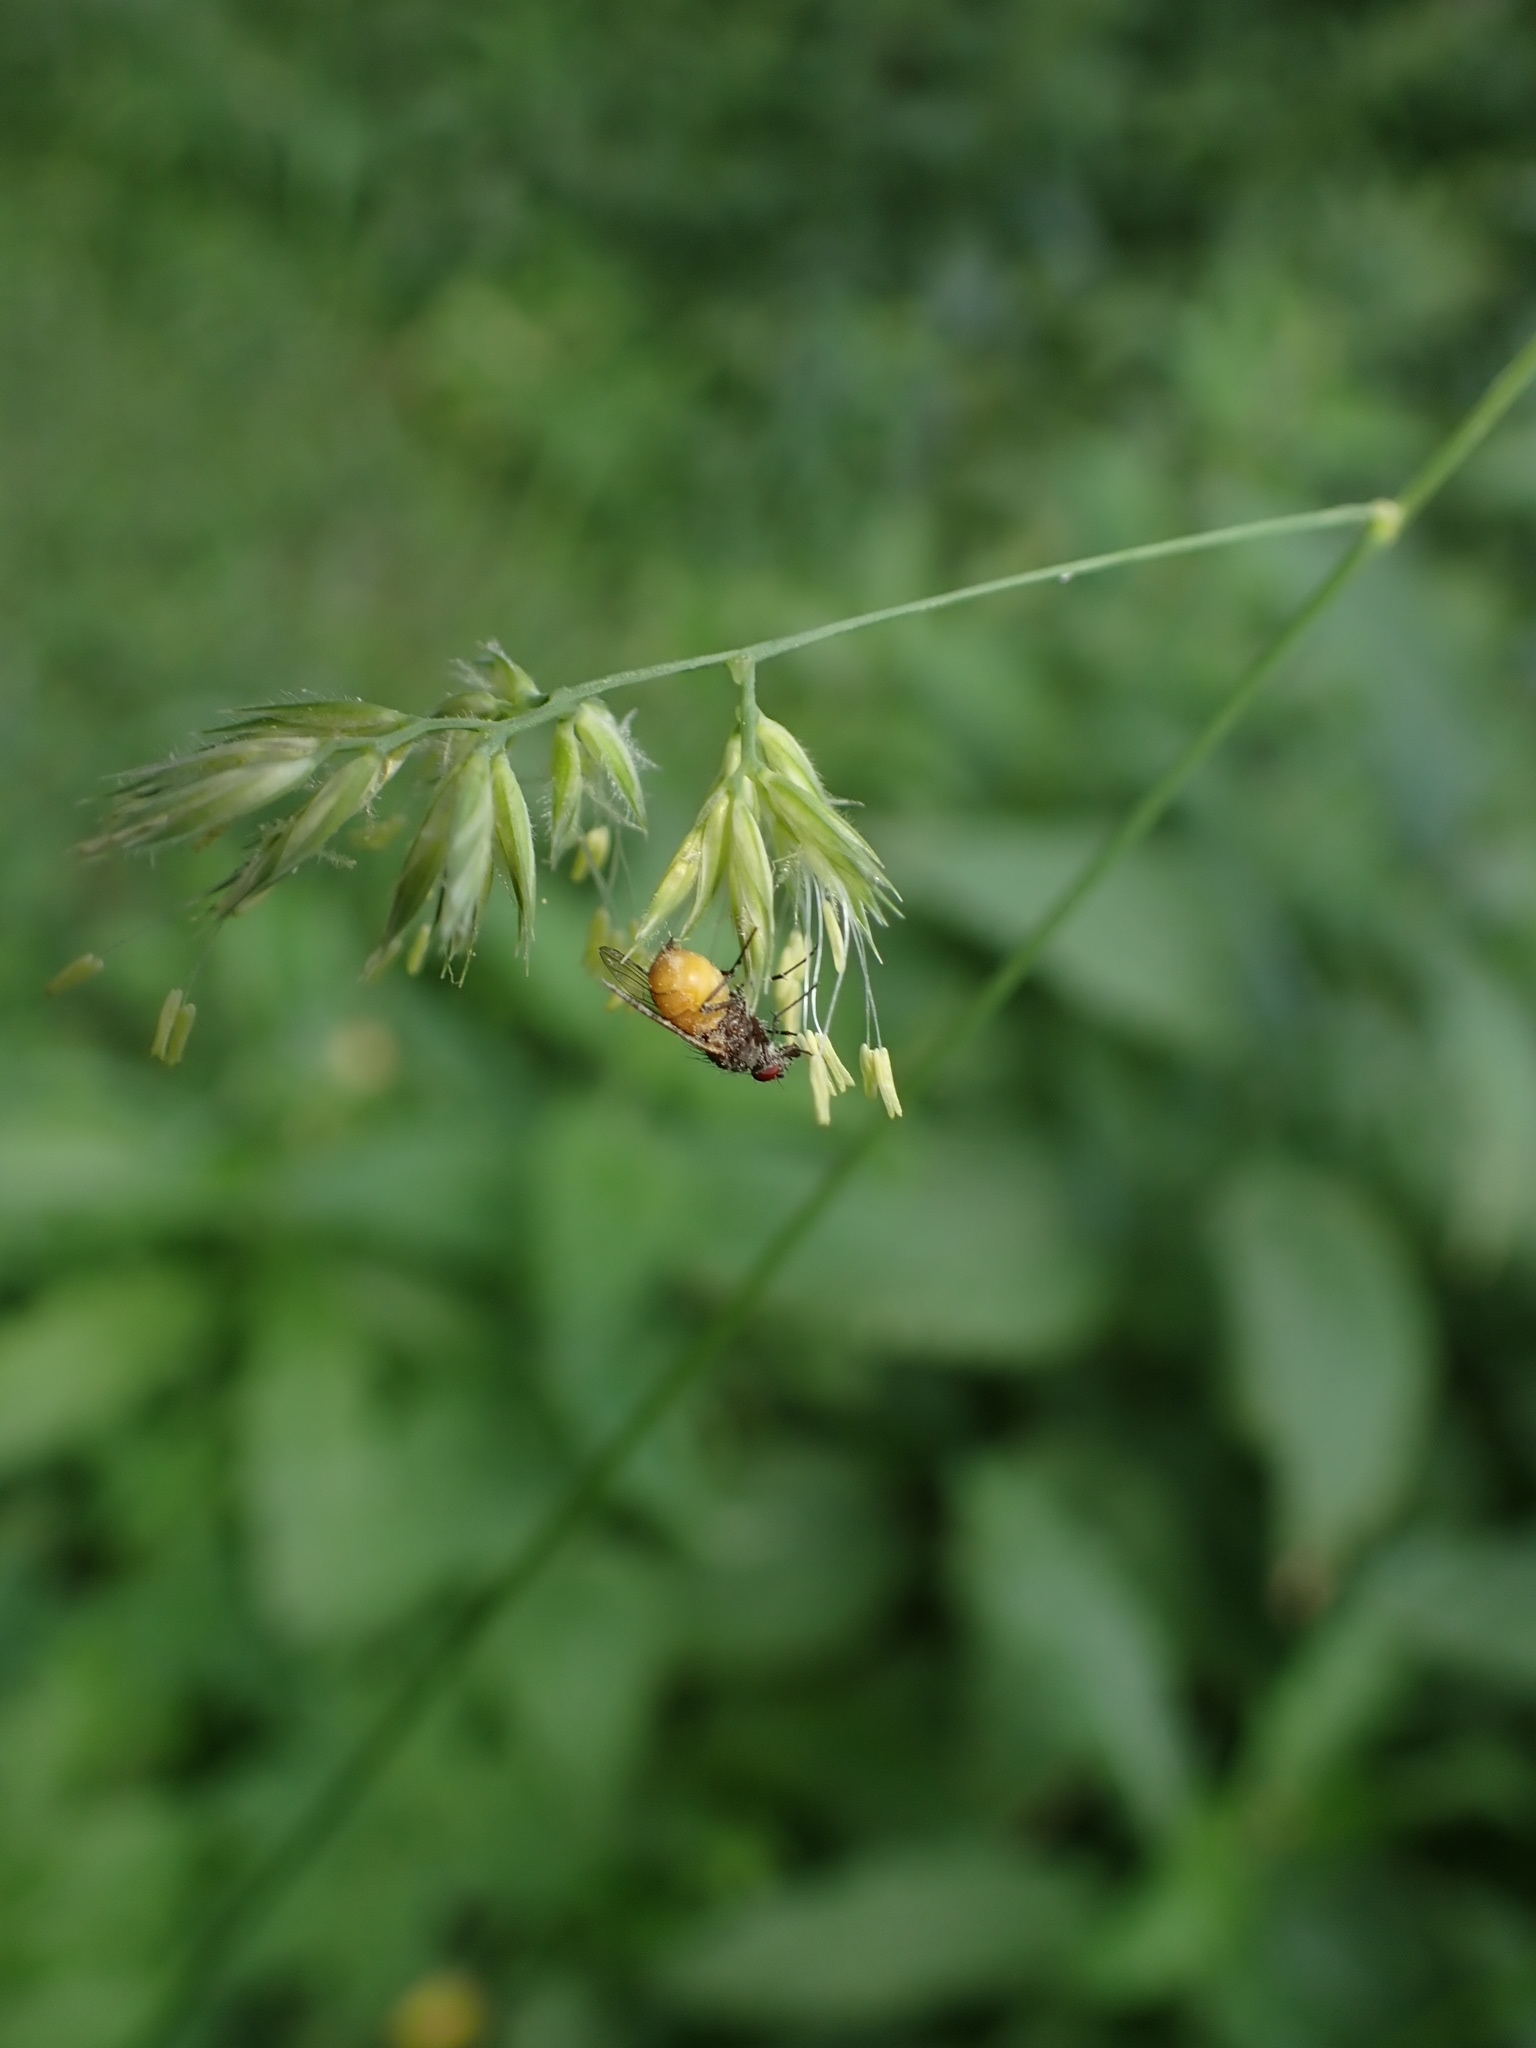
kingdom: Animalia
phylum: Arthropoda
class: Insecta
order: Diptera
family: Muscidae
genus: Thricops
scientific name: Thricops semicinereus
